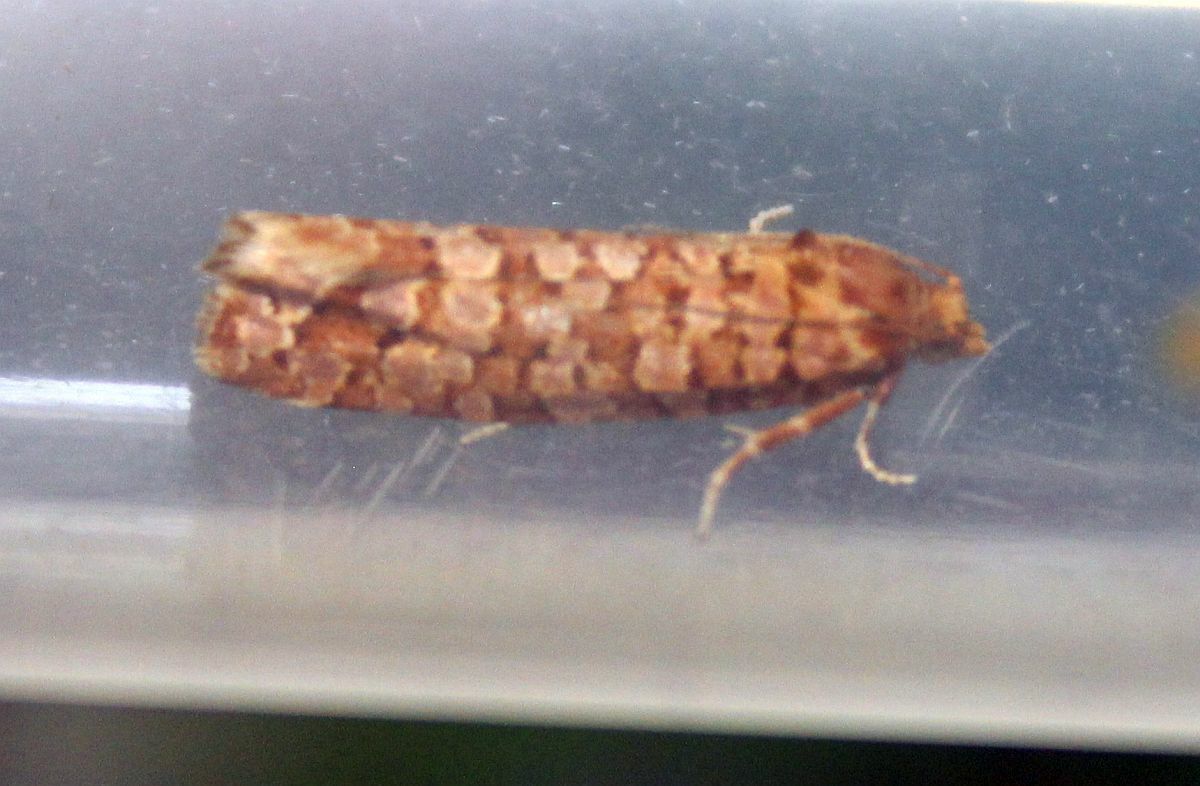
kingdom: Animalia
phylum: Arthropoda
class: Insecta
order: Lepidoptera
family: Tortricidae
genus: Lozotaeniodes
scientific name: Lozotaeniodes formosana
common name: Orange pine twist
